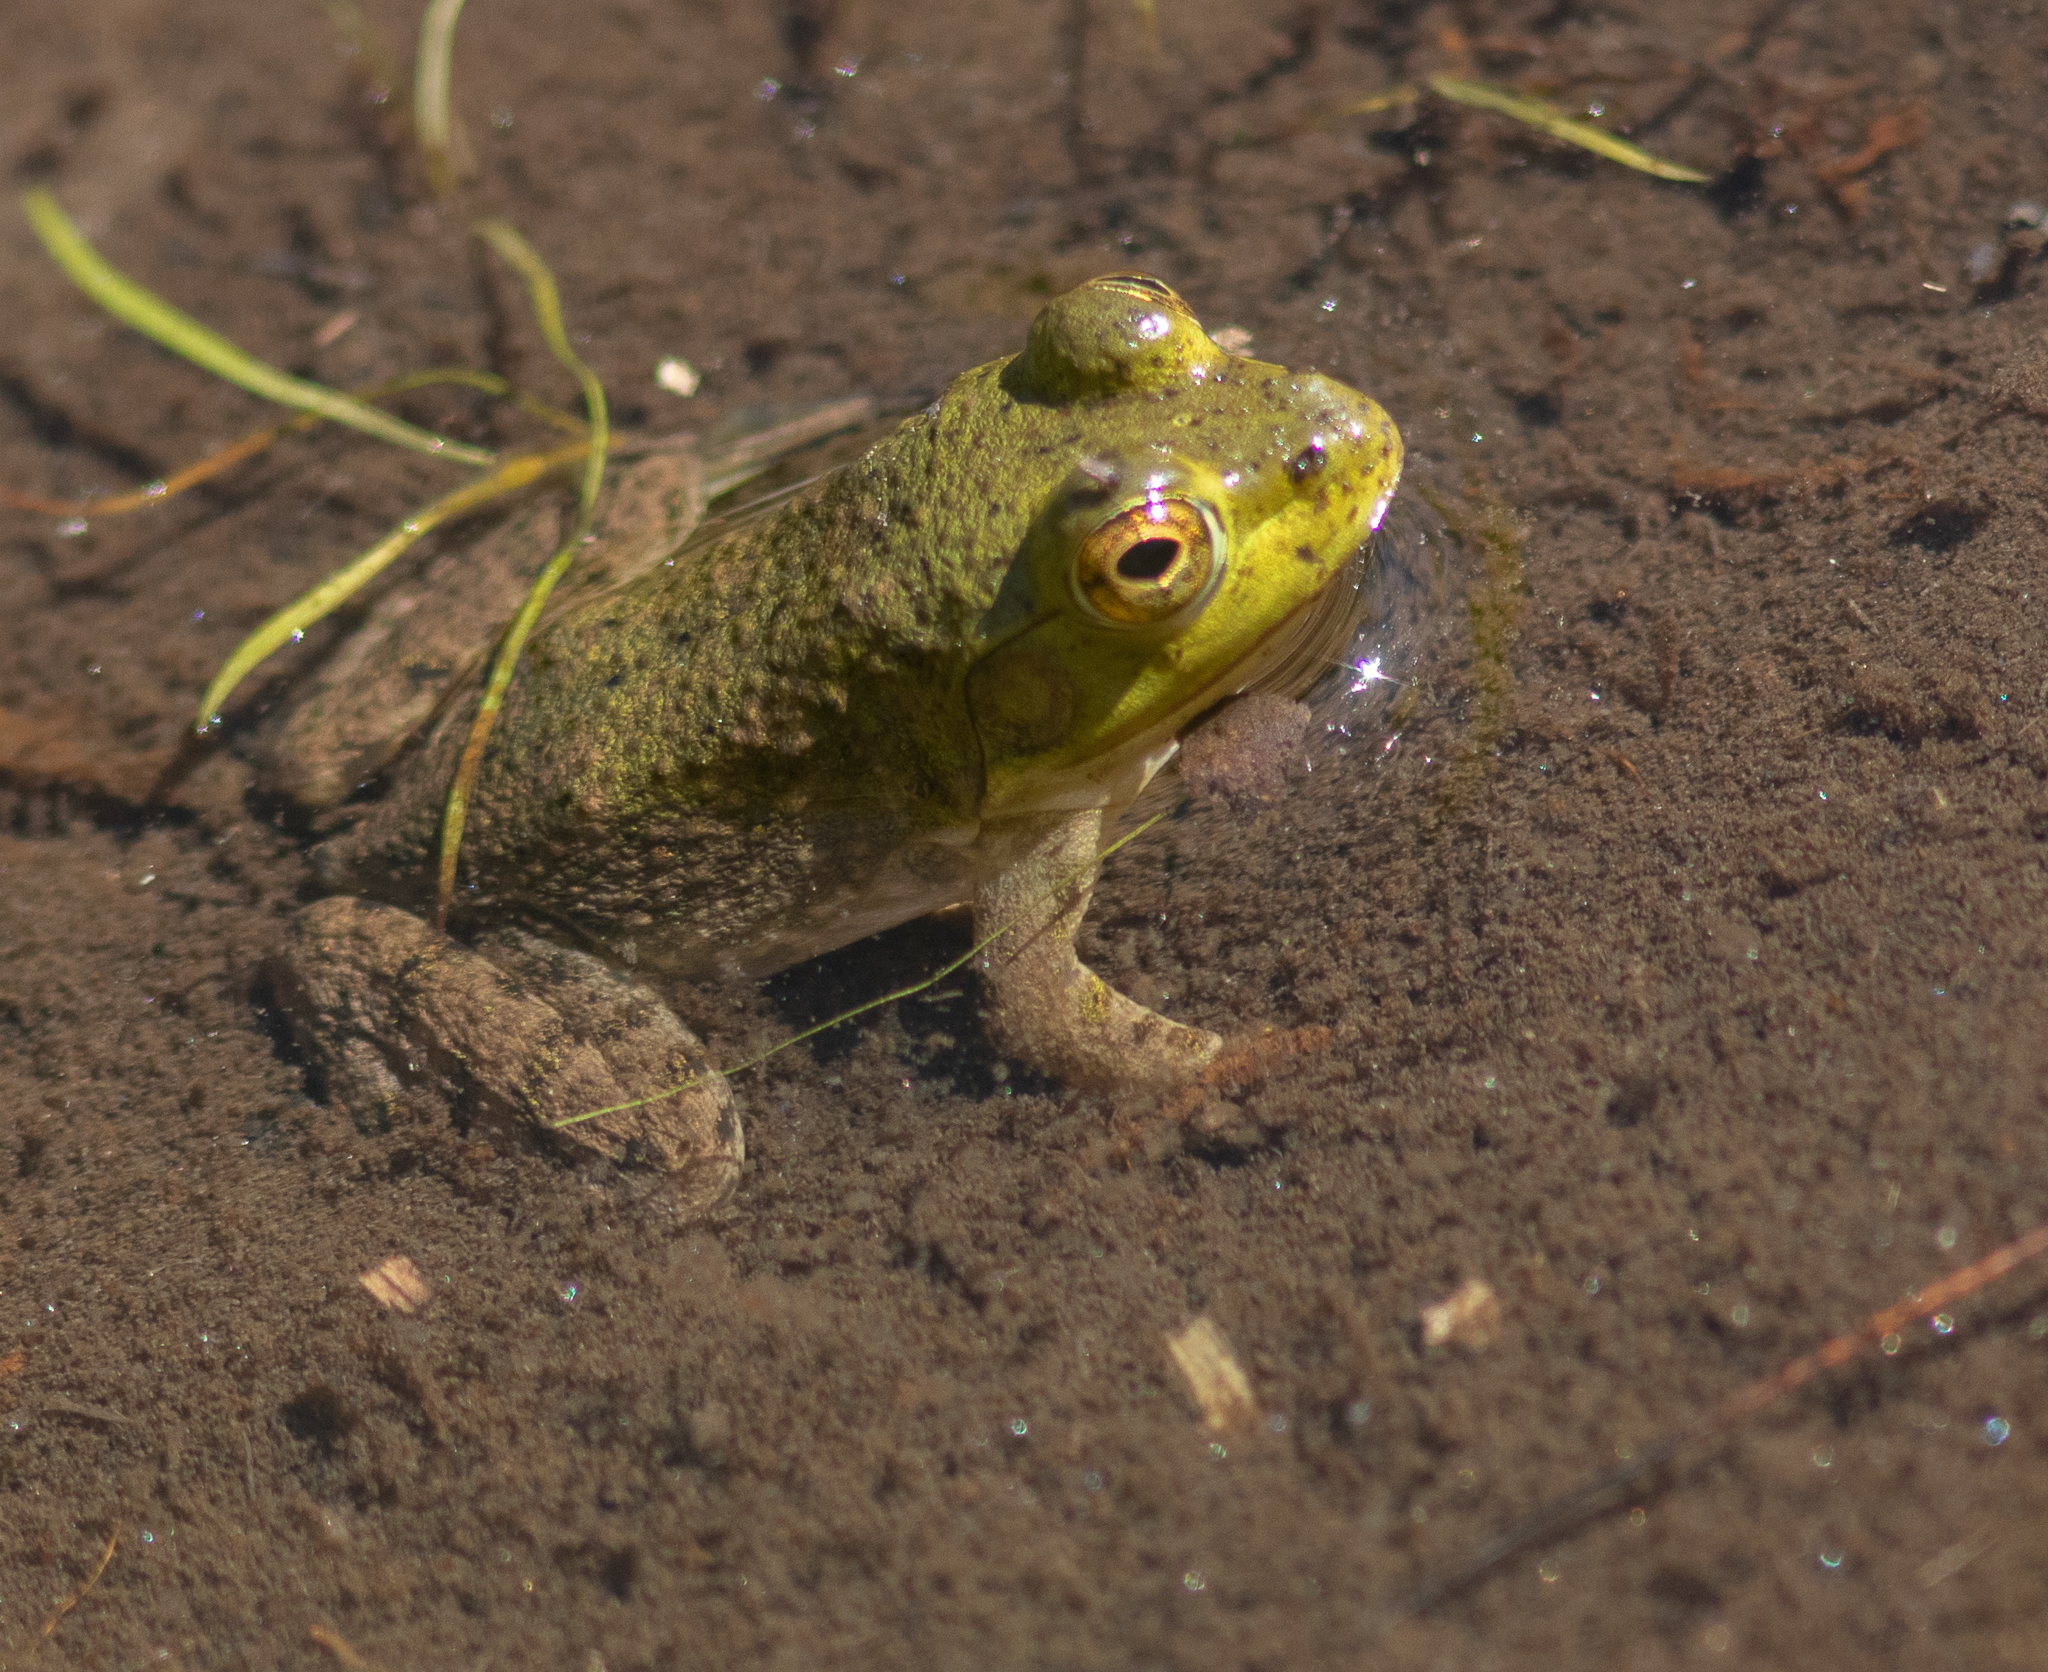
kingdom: Animalia
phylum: Chordata
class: Amphibia
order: Anura
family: Ranidae
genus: Lithobates
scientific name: Lithobates catesbeianus
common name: American bullfrog
